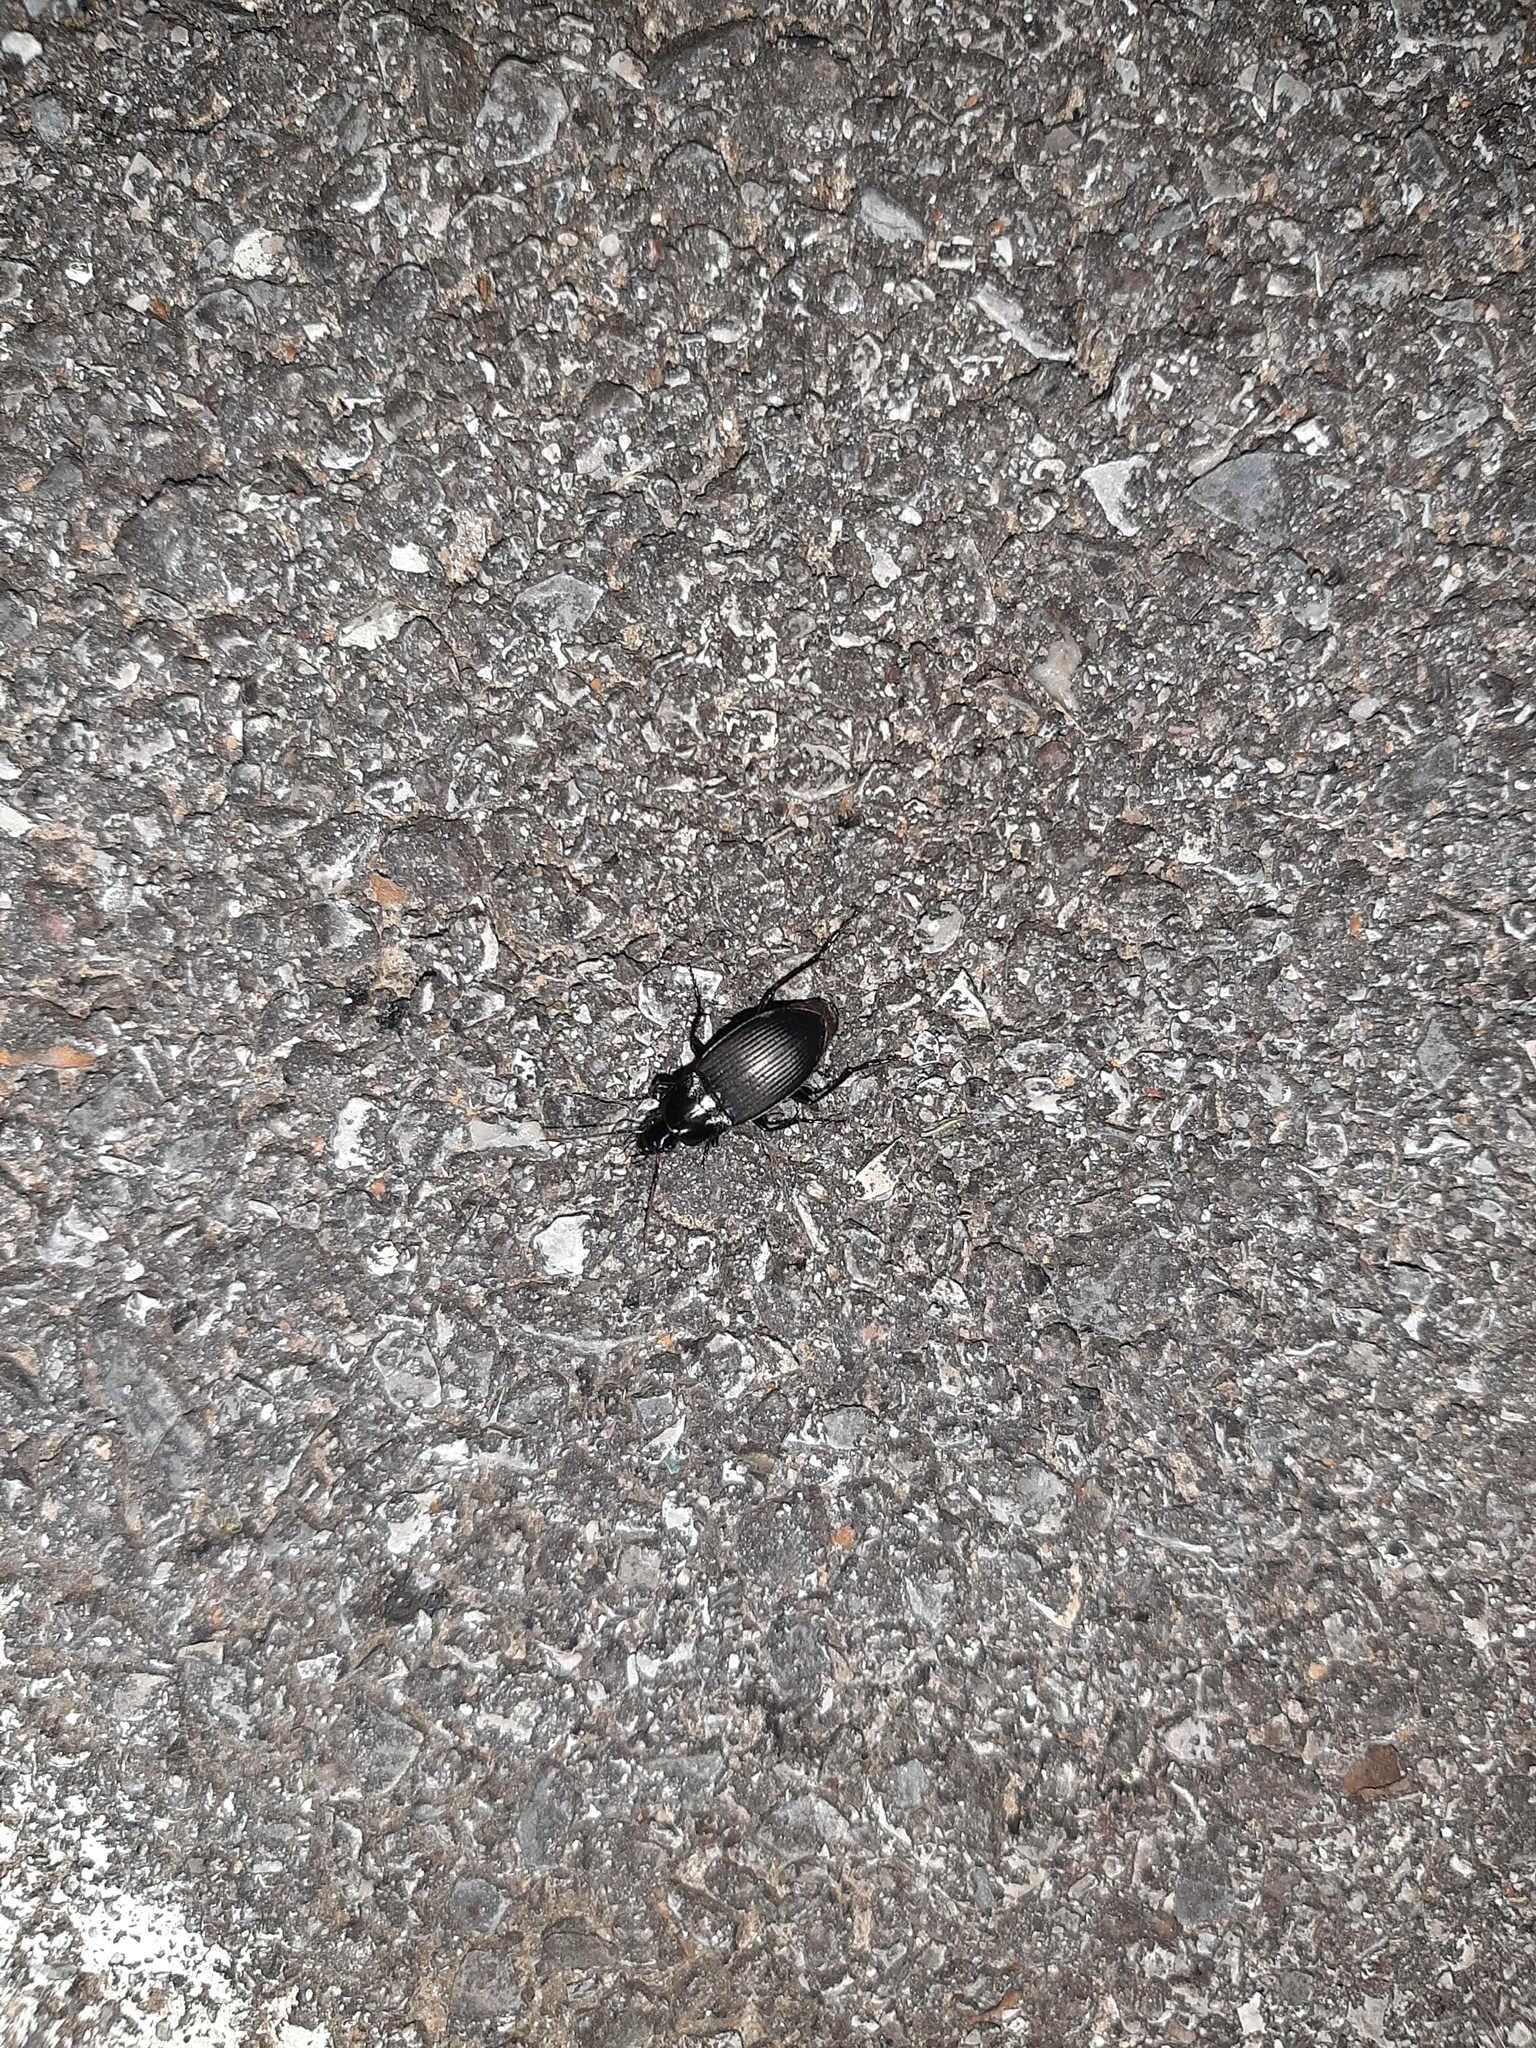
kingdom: Animalia
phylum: Arthropoda
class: Insecta
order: Coleoptera
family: Carabidae
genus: Calathus
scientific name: Calathus fuscipes
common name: Dark-footed harp ground beetle
